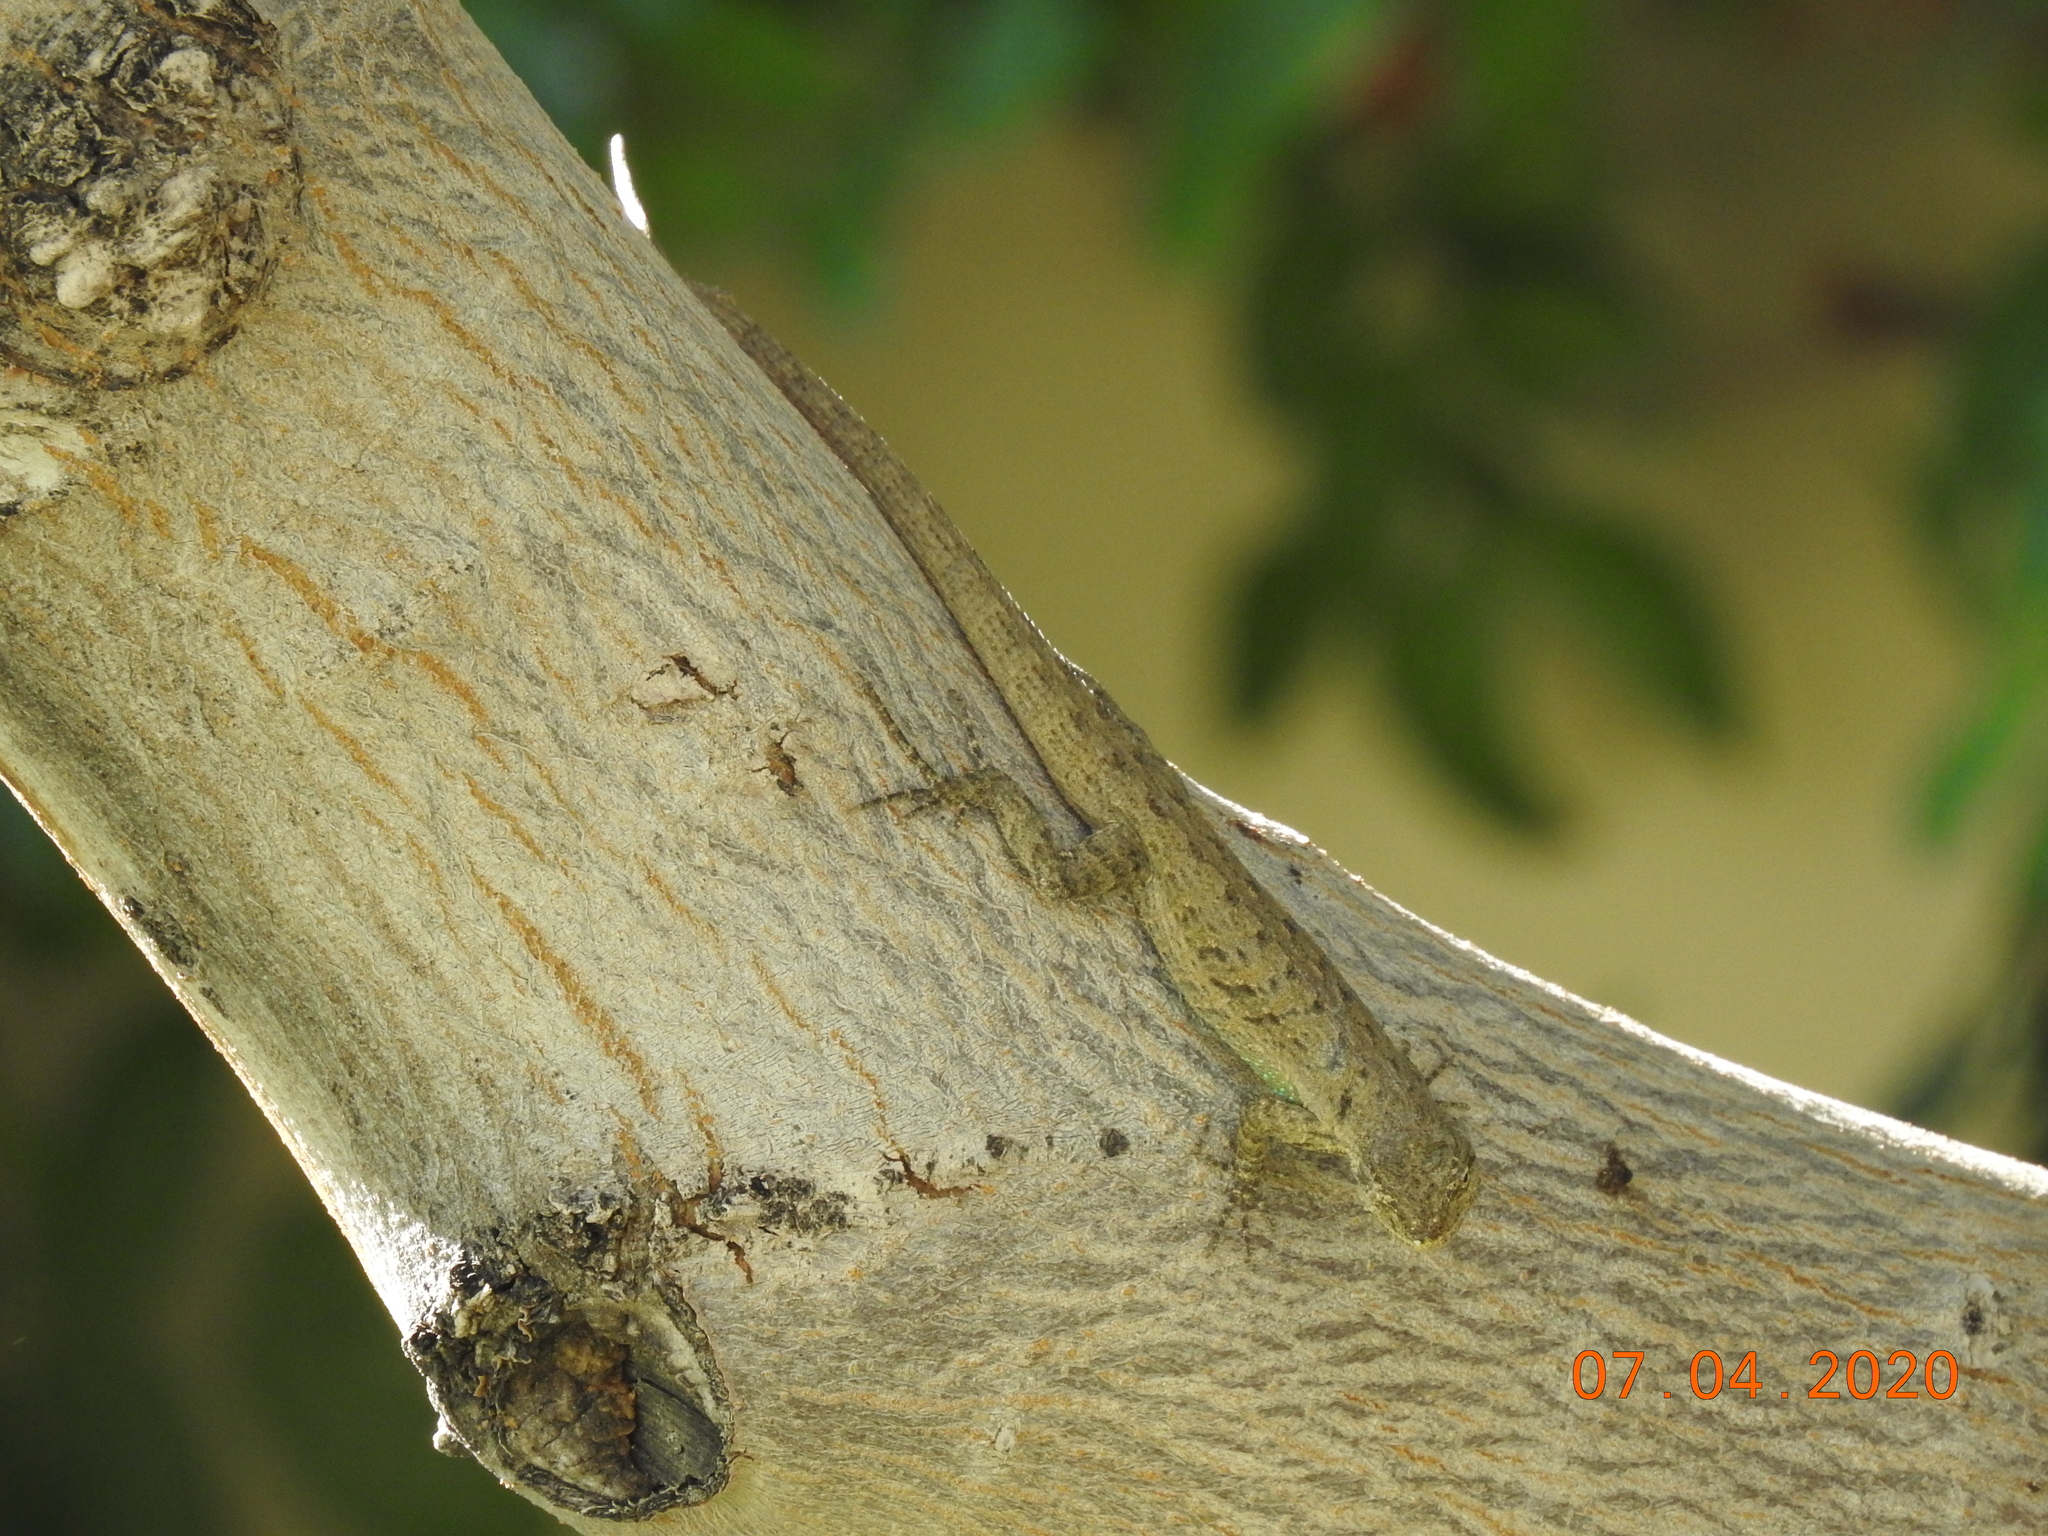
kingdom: Animalia
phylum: Chordata
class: Squamata
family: Phrynosomatidae
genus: Urosaurus
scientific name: Urosaurus graciosus
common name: Long-tailed brush lizard
